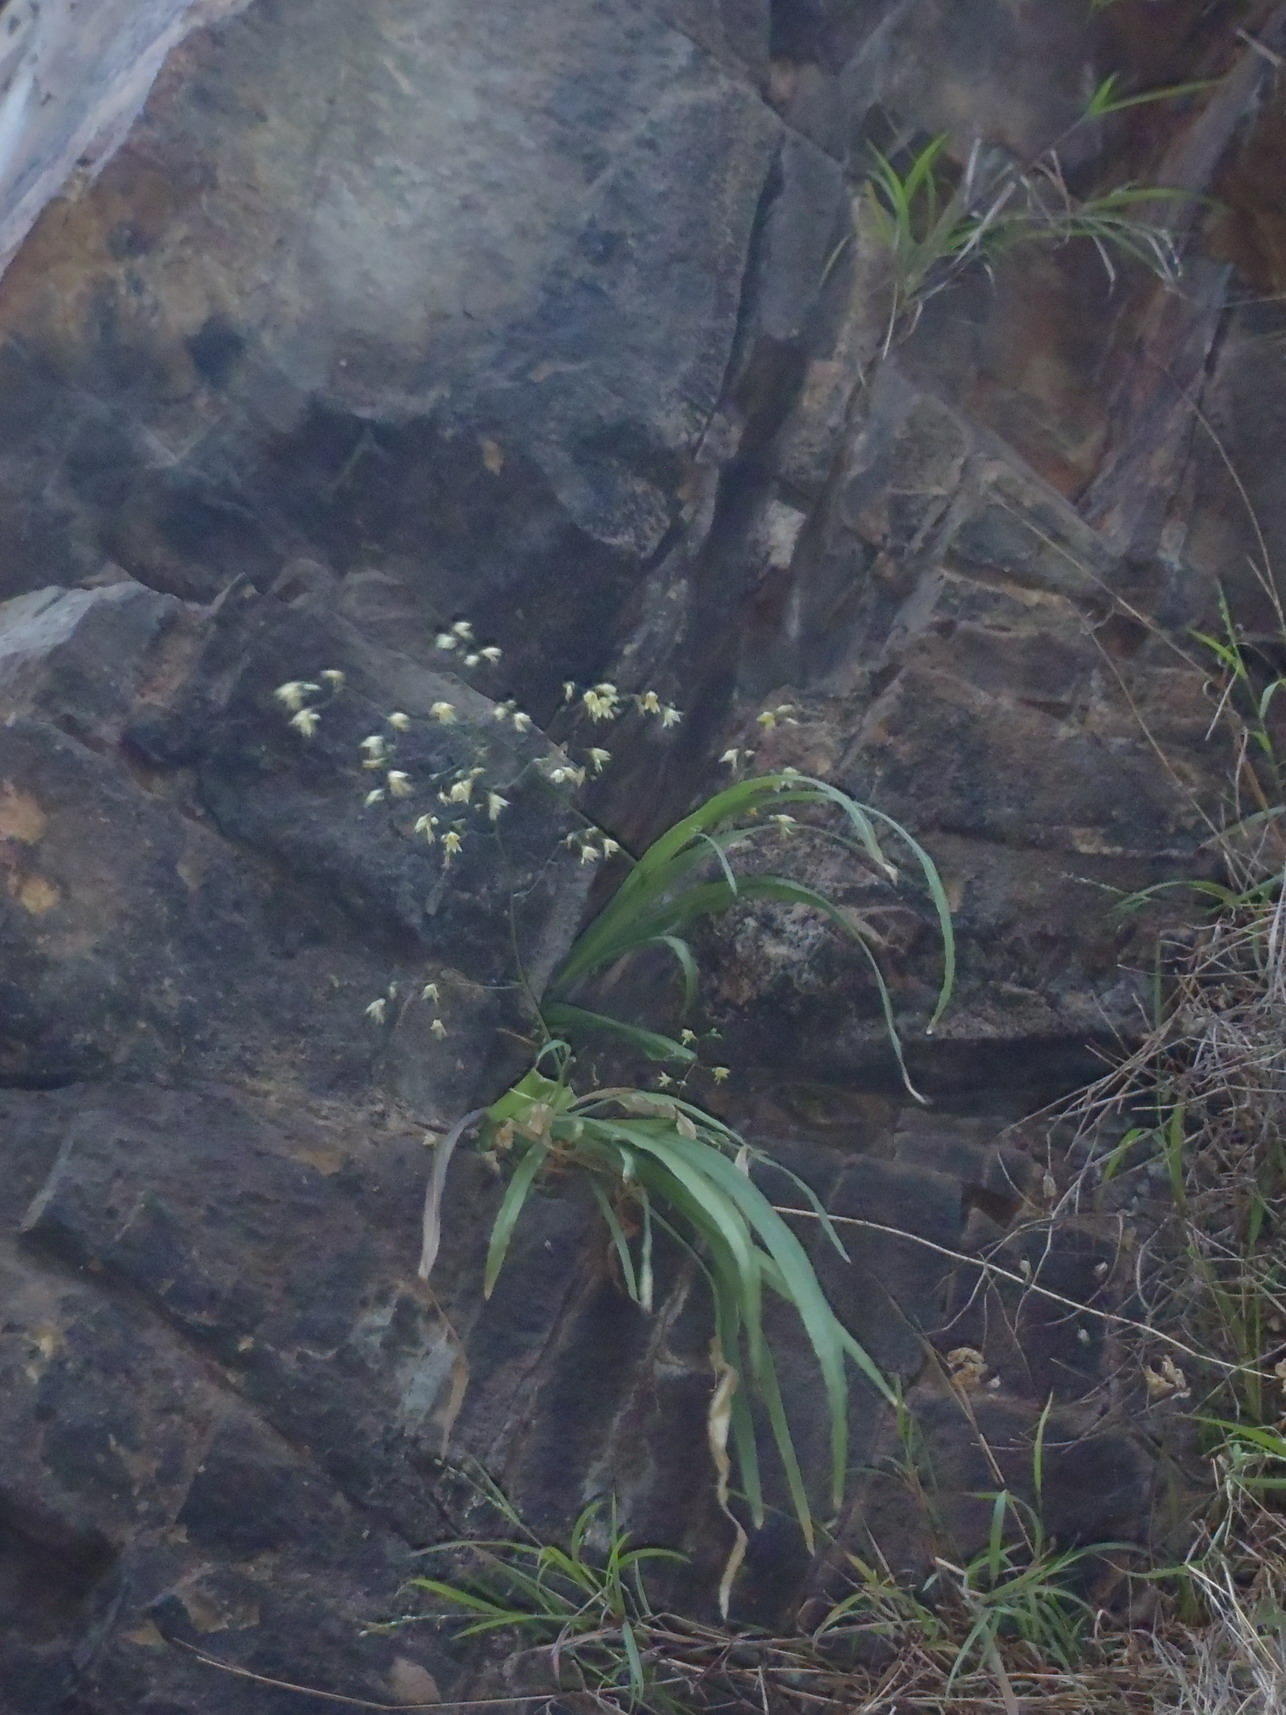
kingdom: Plantae
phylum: Tracheophyta
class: Liliopsida
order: Asparagales
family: Iridaceae
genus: Melasphaerula
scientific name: Melasphaerula graminea
